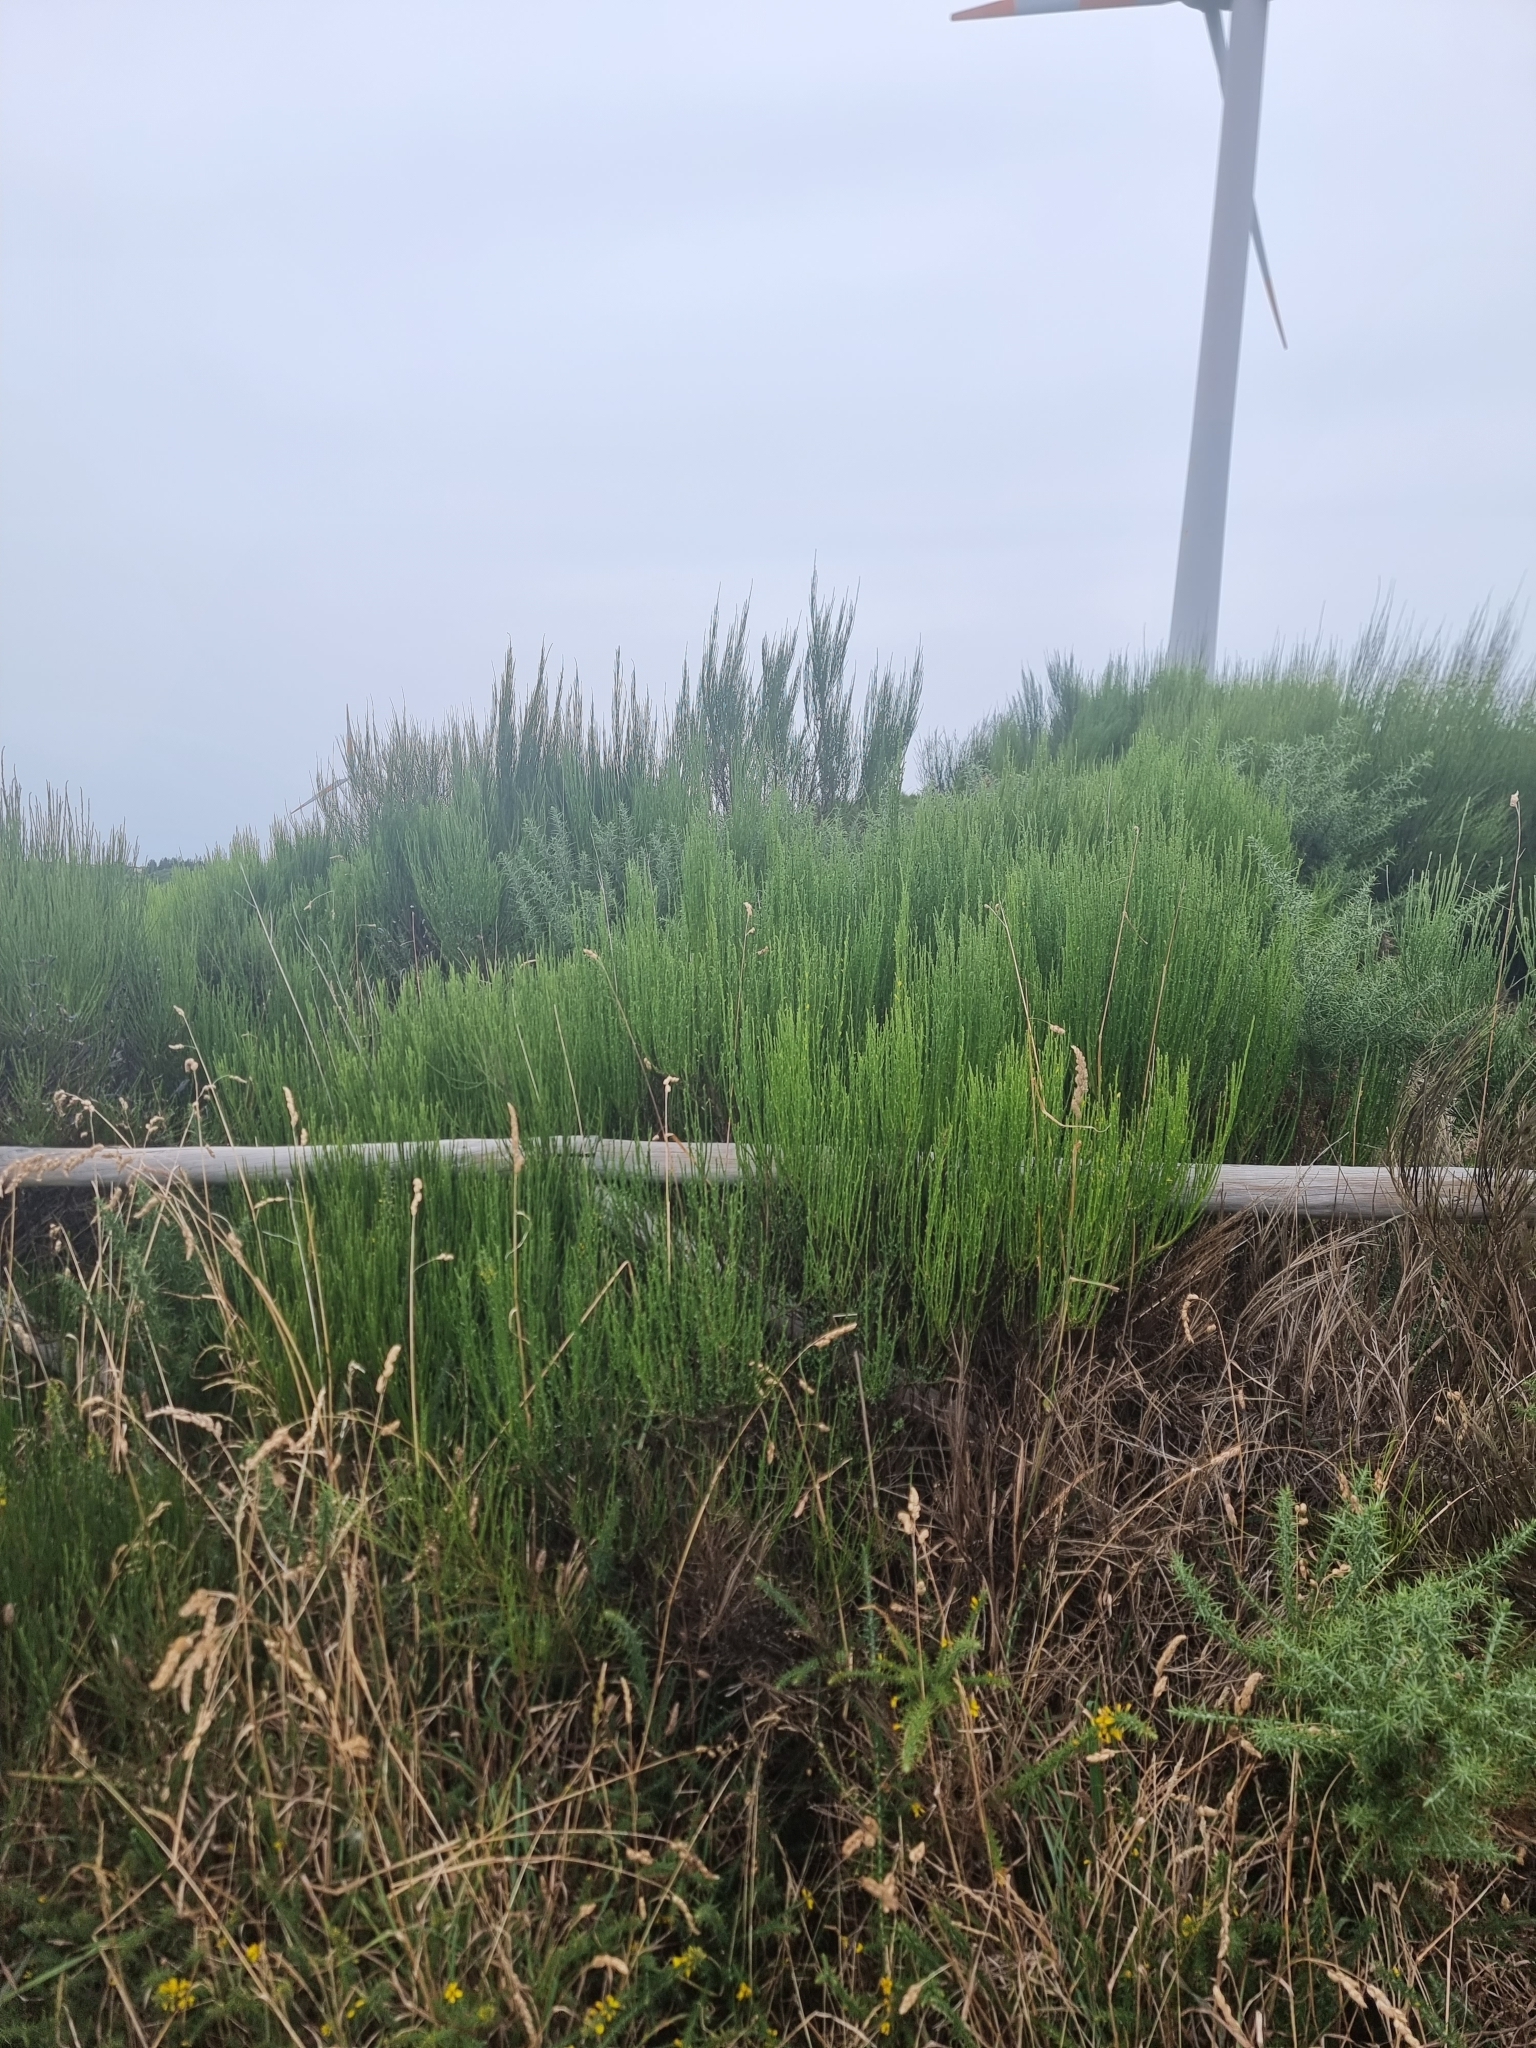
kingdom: Plantae
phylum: Tracheophyta
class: Magnoliopsida
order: Fabales
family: Fabaceae
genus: Cytisus
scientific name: Cytisus scoparius
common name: Scotch broom
